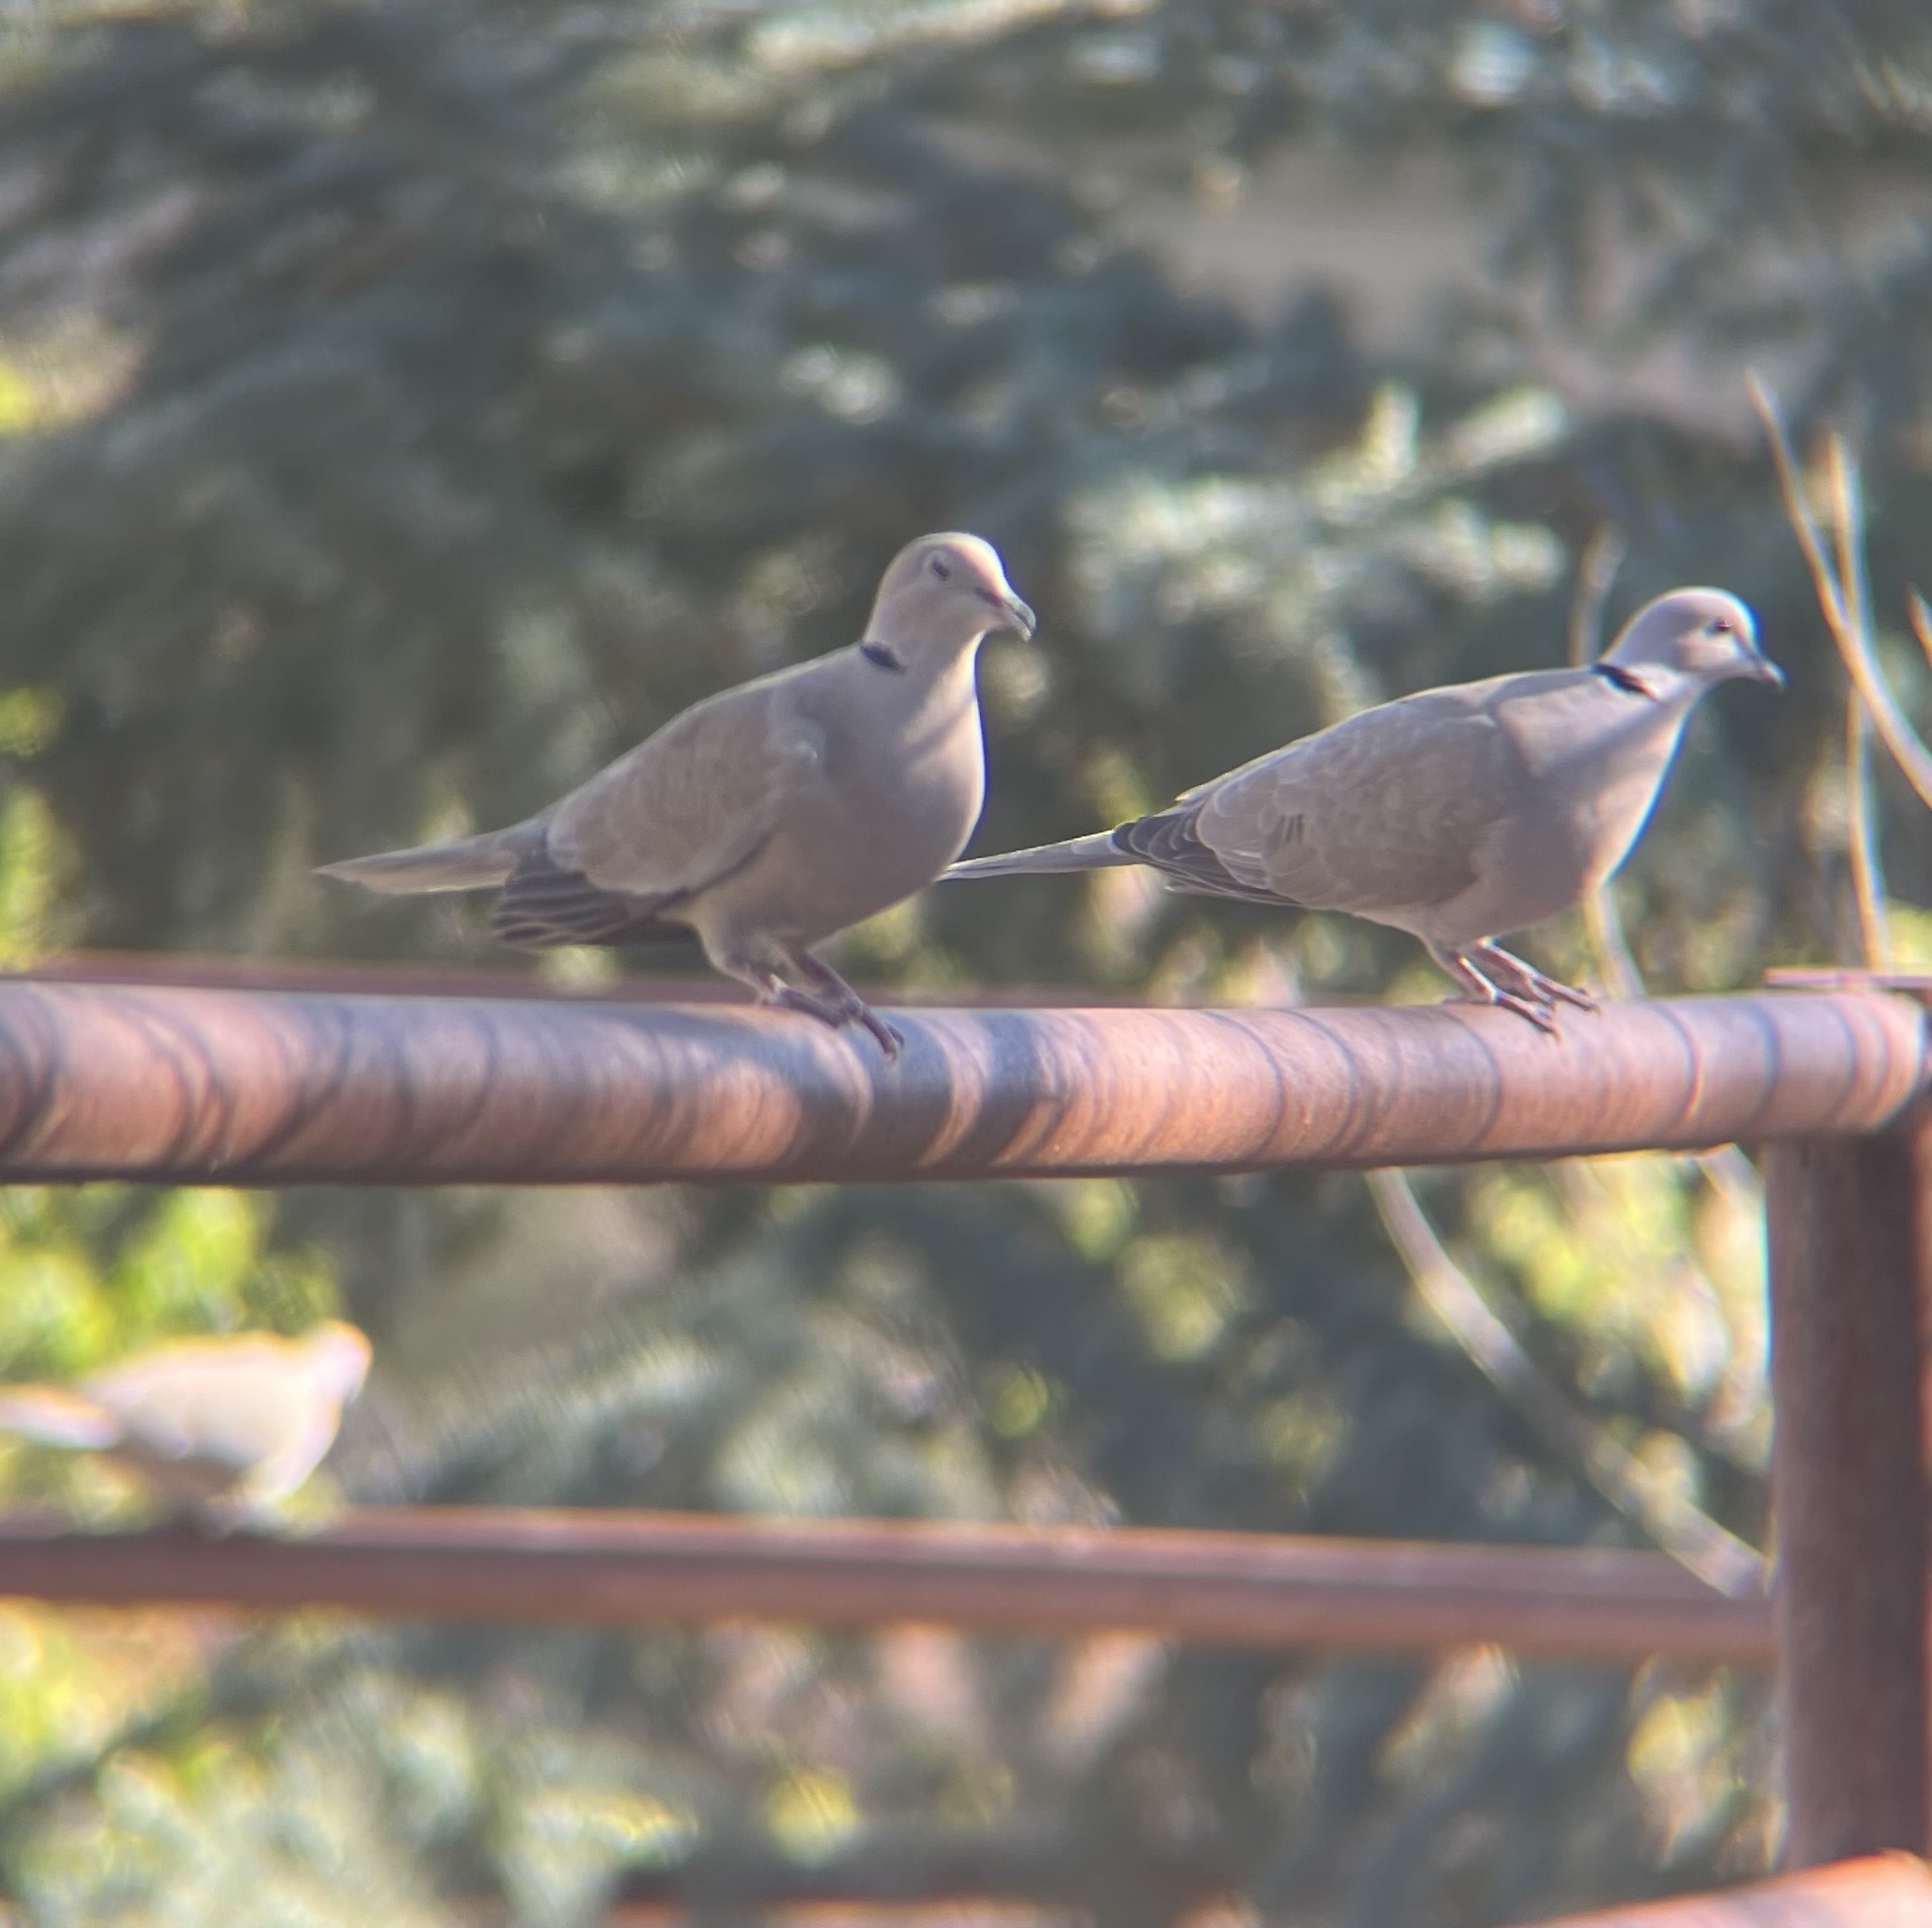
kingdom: Animalia
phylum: Chordata
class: Aves
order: Columbiformes
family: Columbidae
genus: Streptopelia
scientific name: Streptopelia decaocto
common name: Eurasian collared dove
